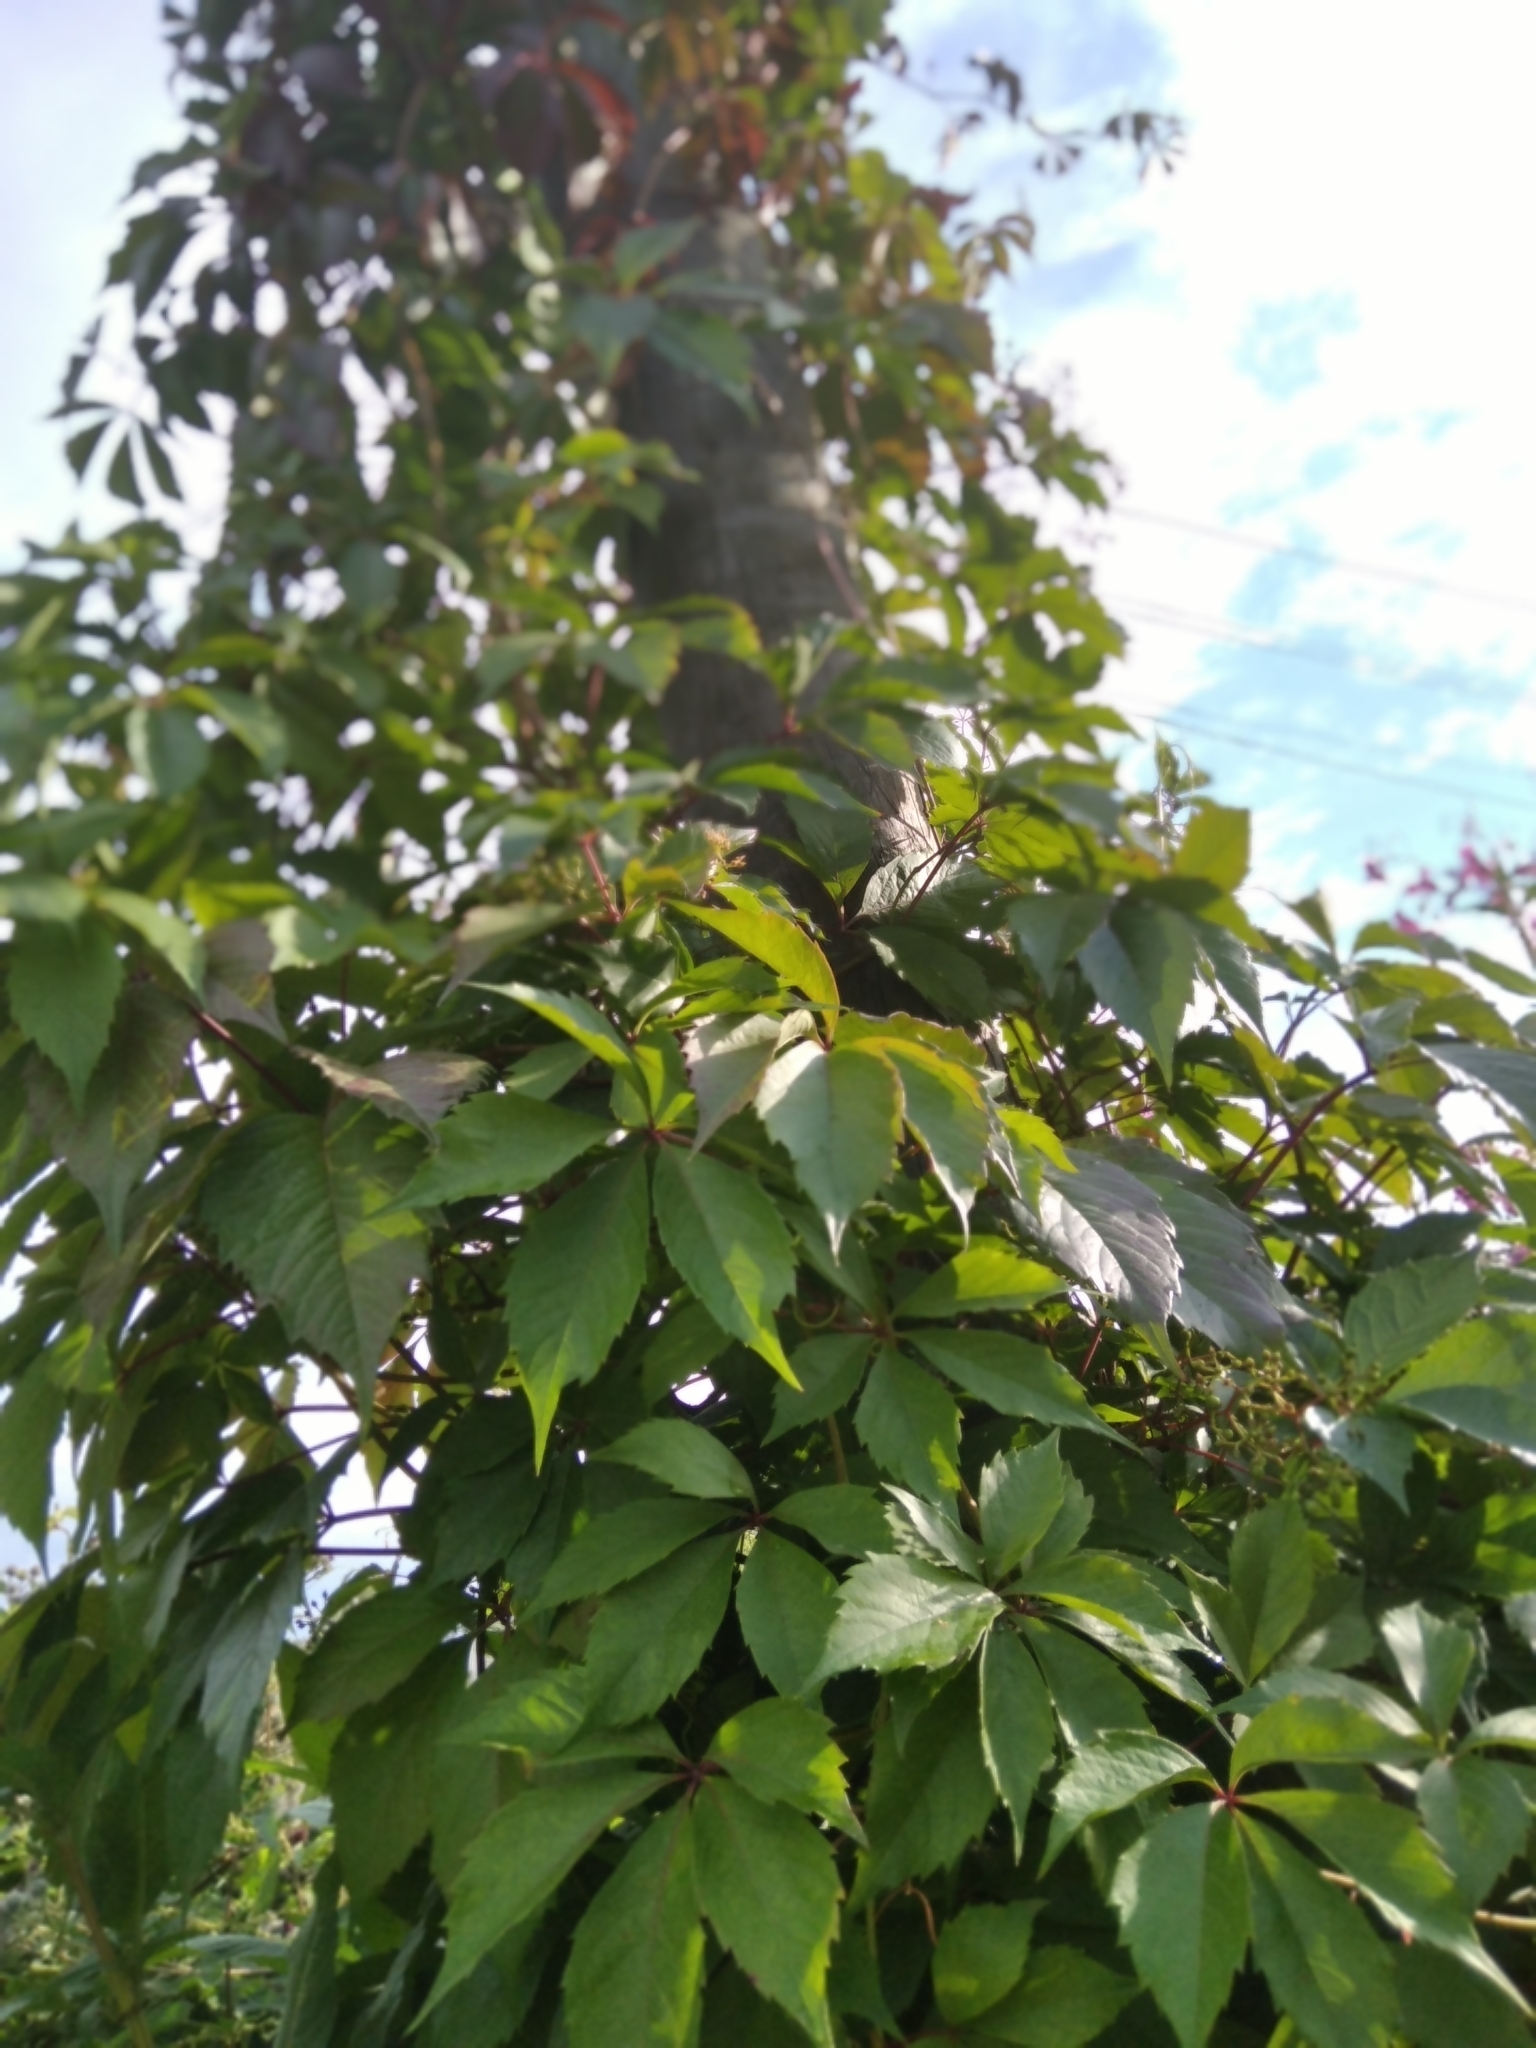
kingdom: Plantae
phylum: Tracheophyta
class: Magnoliopsida
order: Vitales
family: Vitaceae
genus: Parthenocissus
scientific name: Parthenocissus inserta
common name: False virginia-creeper
